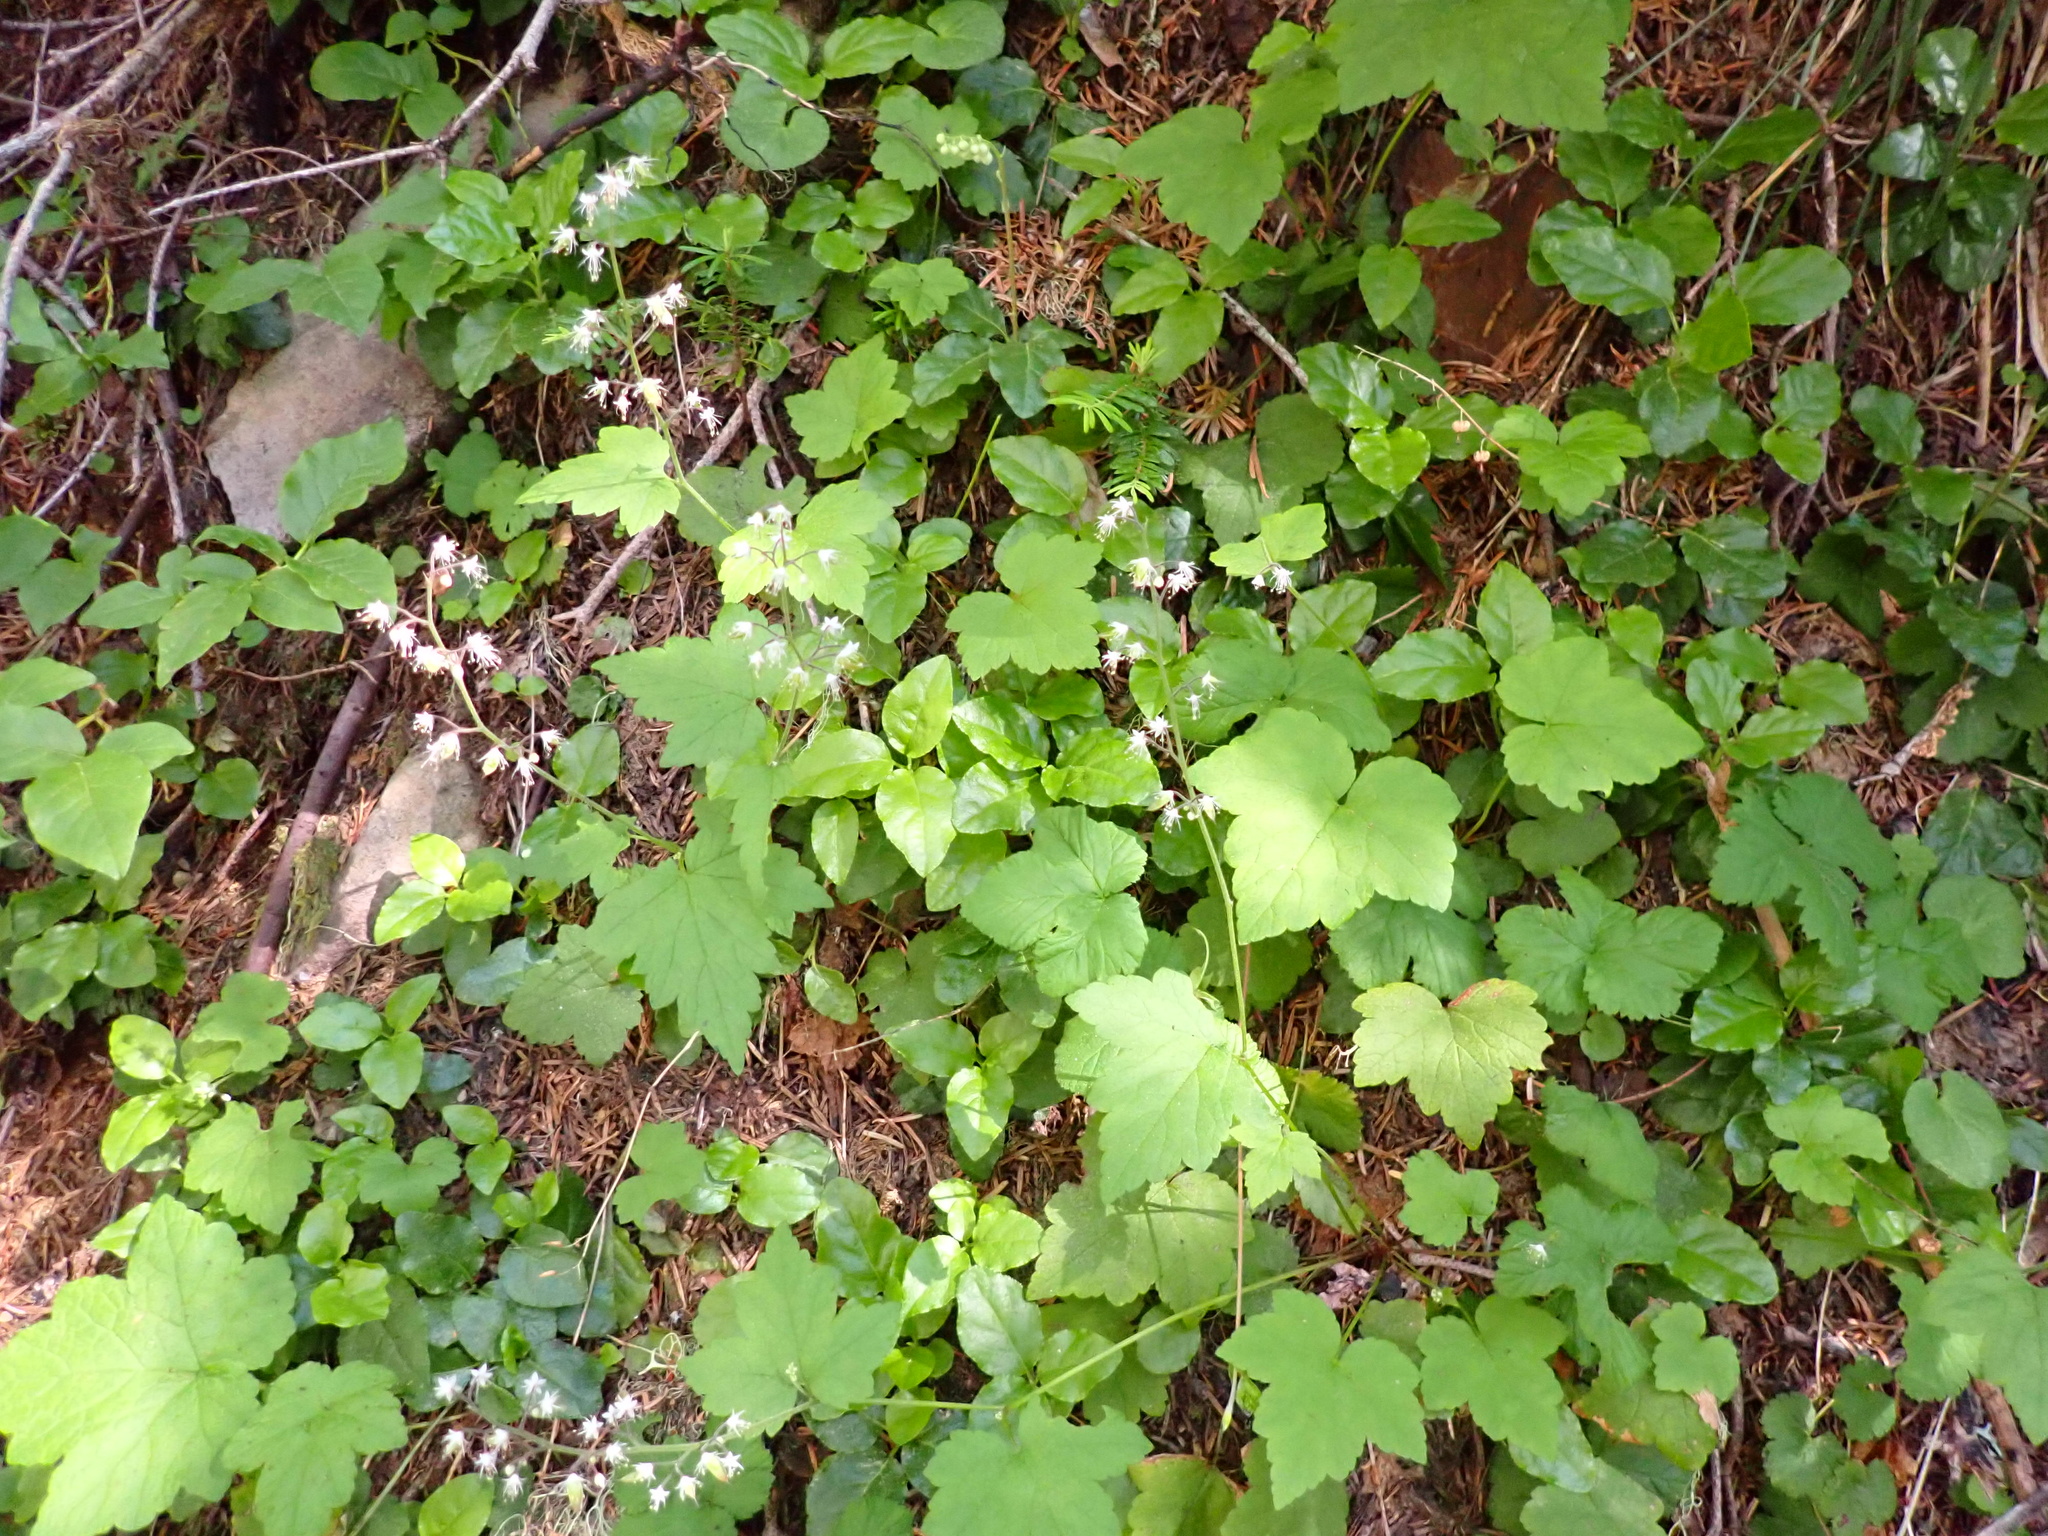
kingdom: Plantae
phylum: Tracheophyta
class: Magnoliopsida
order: Saxifragales
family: Saxifragaceae
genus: Tiarella
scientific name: Tiarella trifoliata
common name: Sugar-scoop
